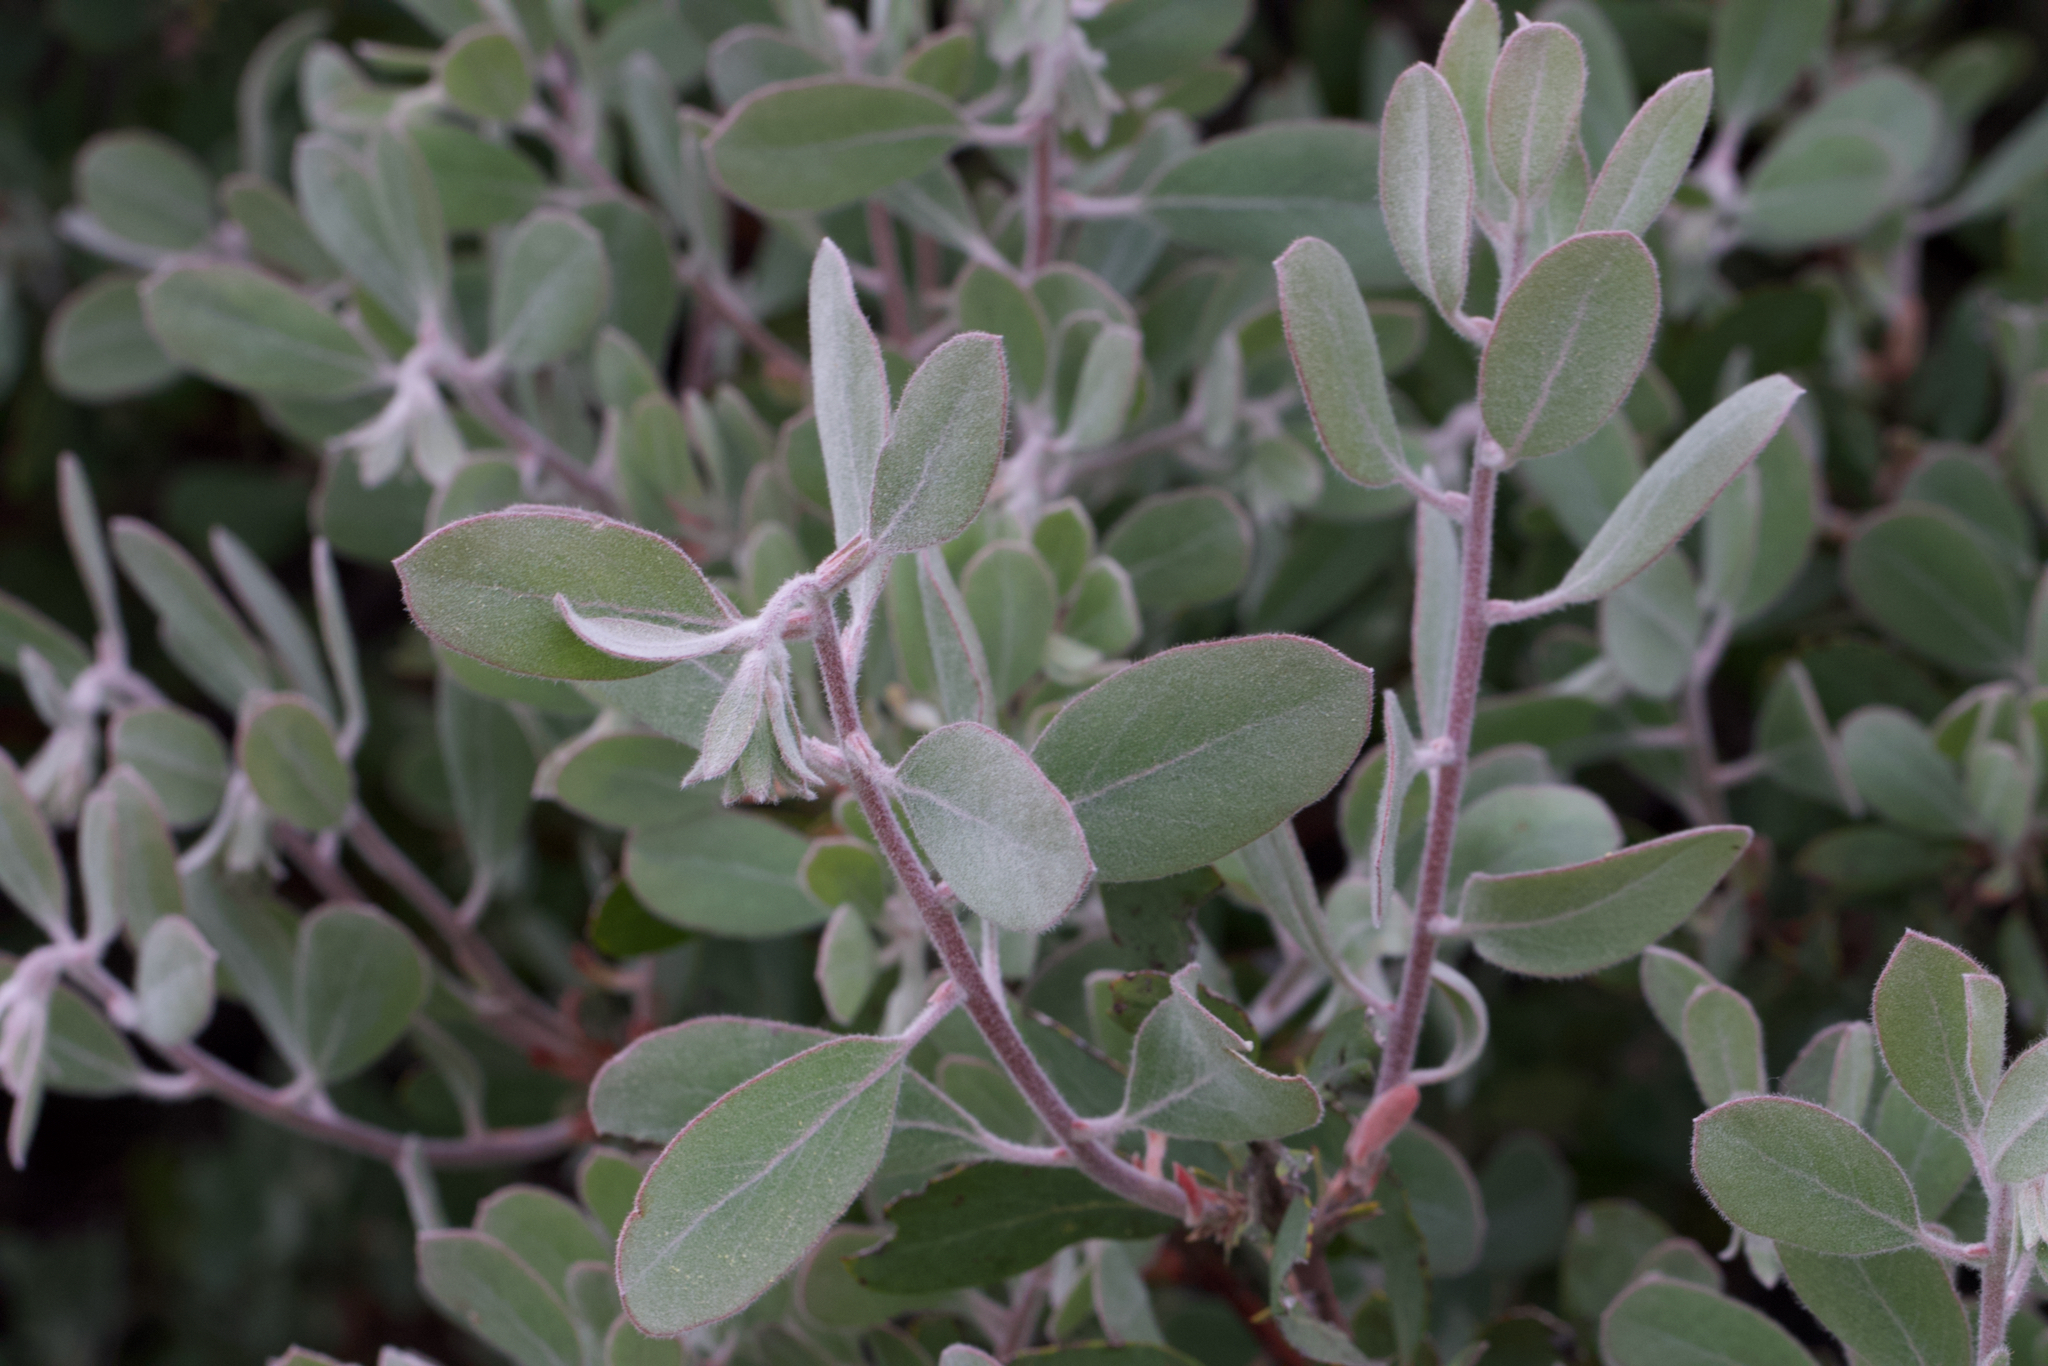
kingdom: Plantae
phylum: Tracheophyta
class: Magnoliopsida
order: Ericales
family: Ericaceae
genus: Arctostaphylos
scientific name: Arctostaphylos silvicola
